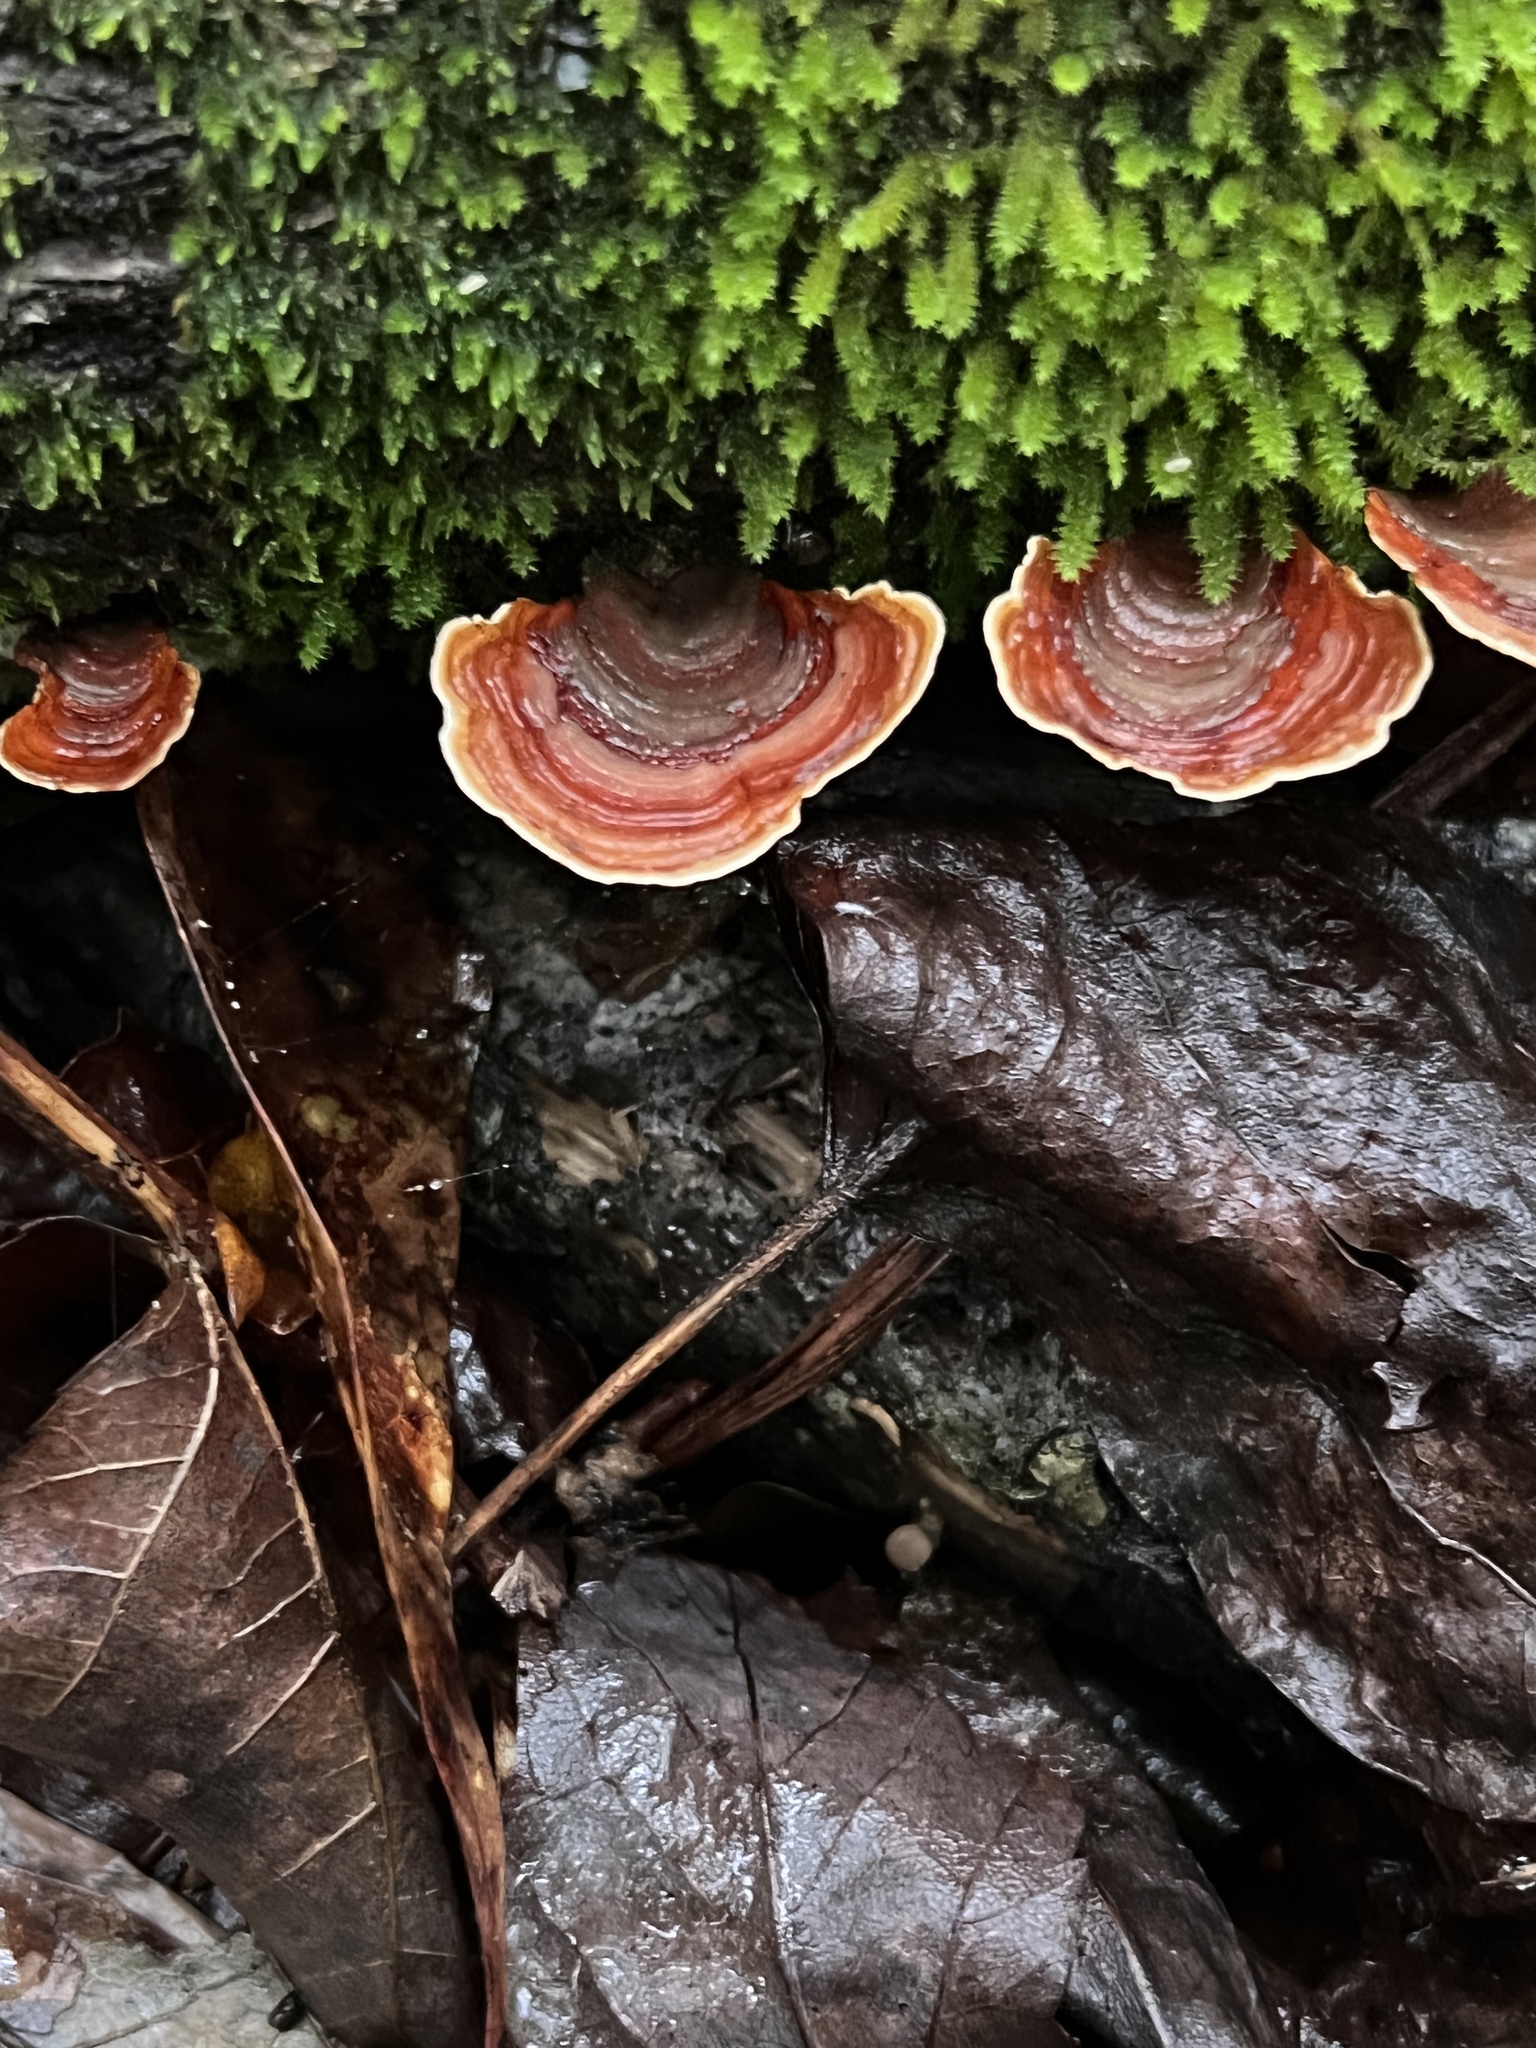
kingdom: Fungi
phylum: Basidiomycota
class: Agaricomycetes
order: Russulales
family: Stereaceae
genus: Stereum
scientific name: Stereum lobatum
